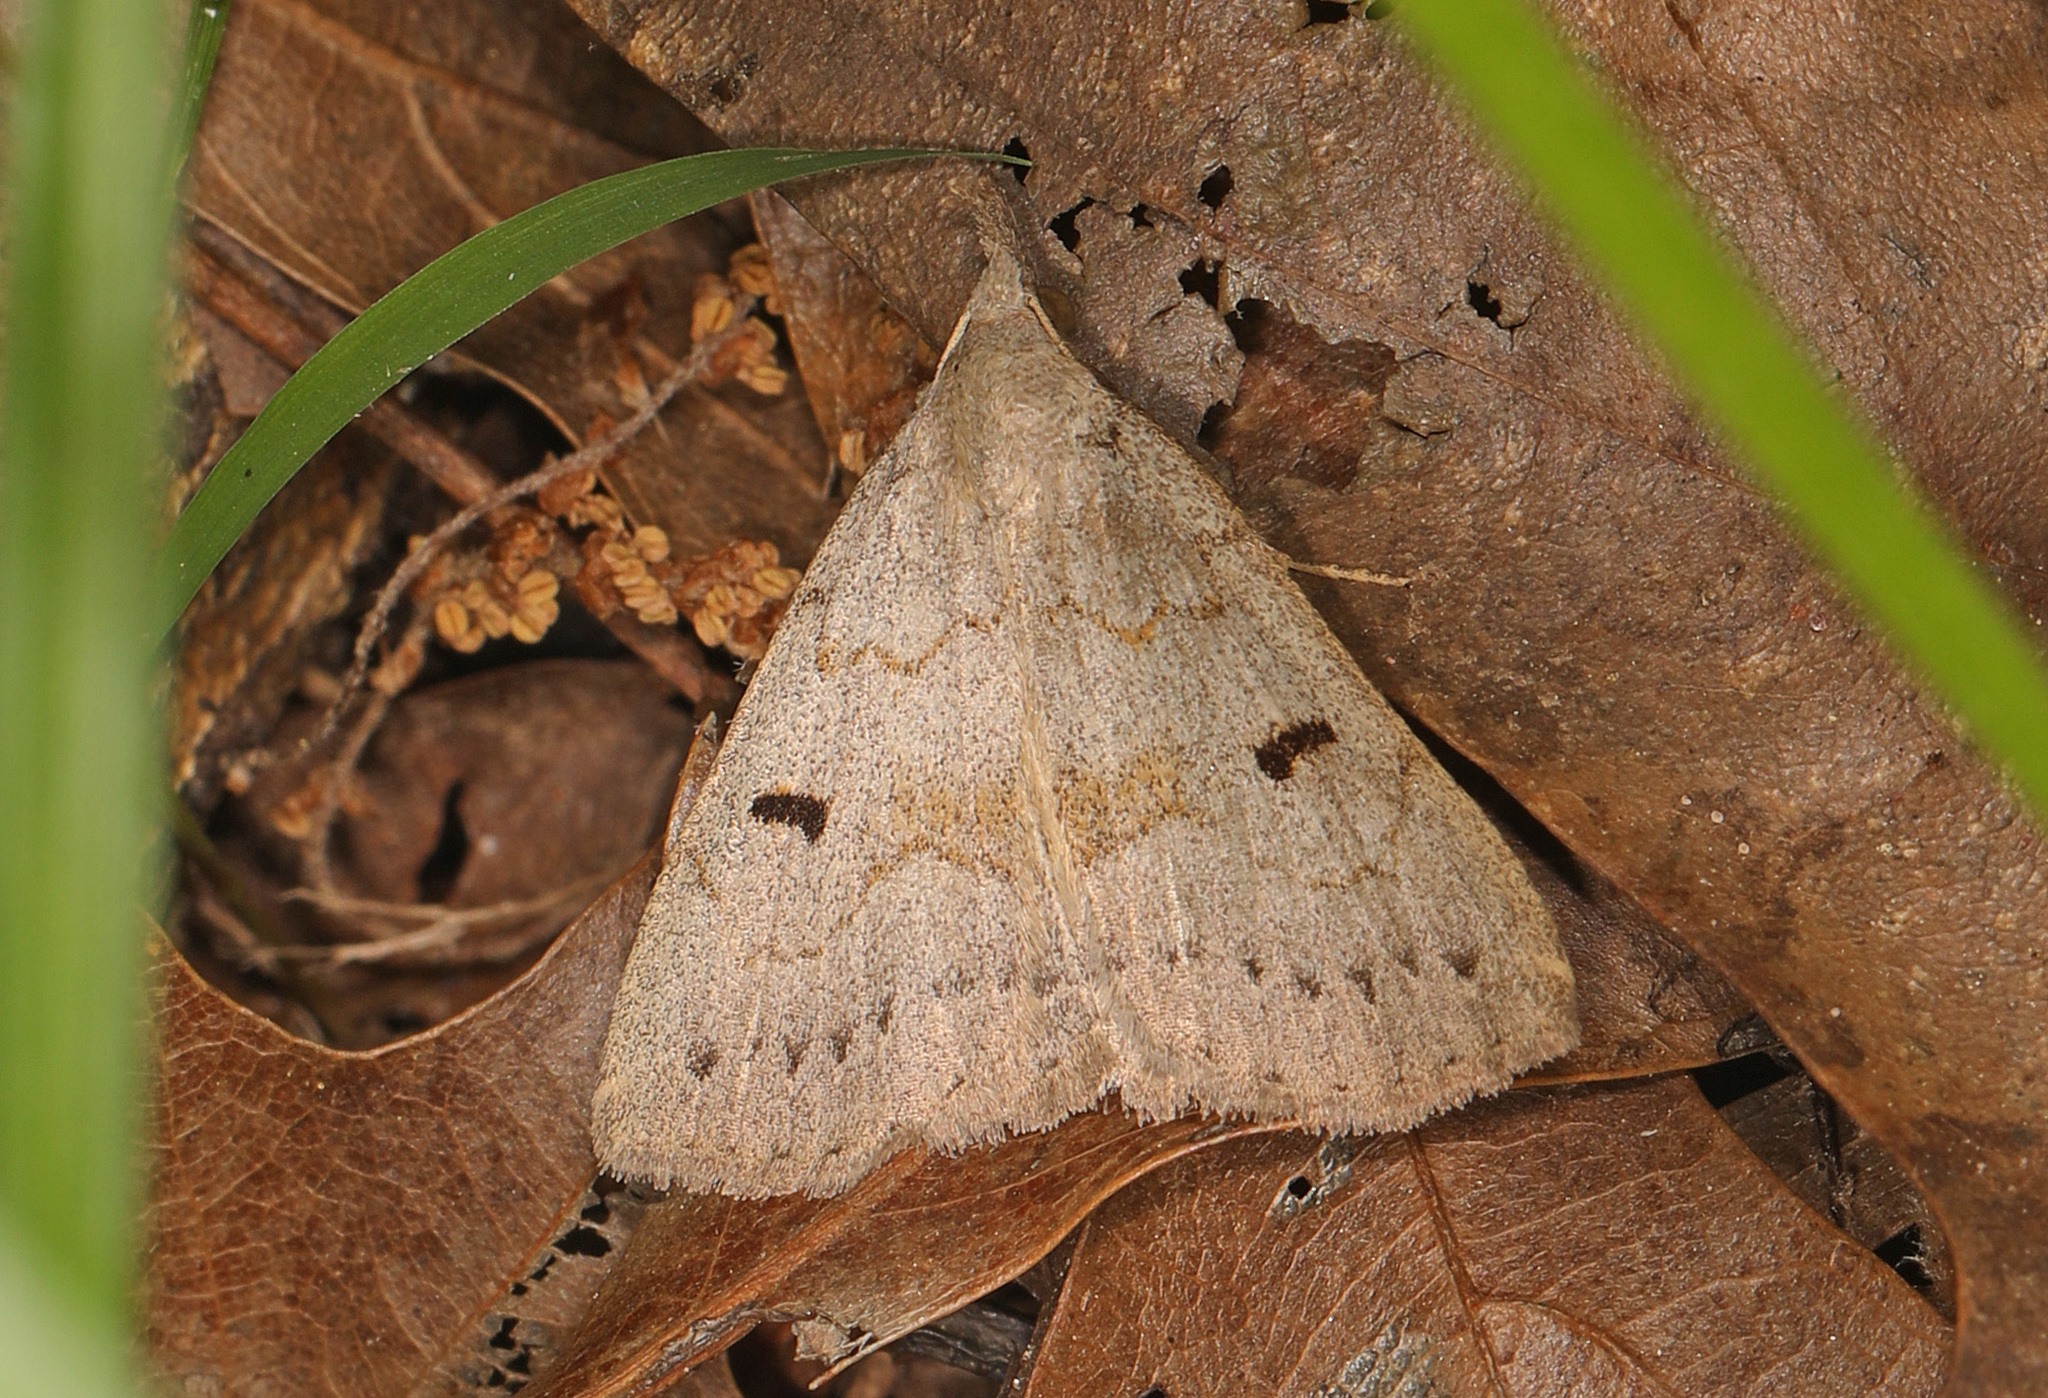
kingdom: Animalia
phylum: Arthropoda
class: Insecta
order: Lepidoptera
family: Erebidae
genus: Macrochilo
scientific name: Macrochilo morbidalis
